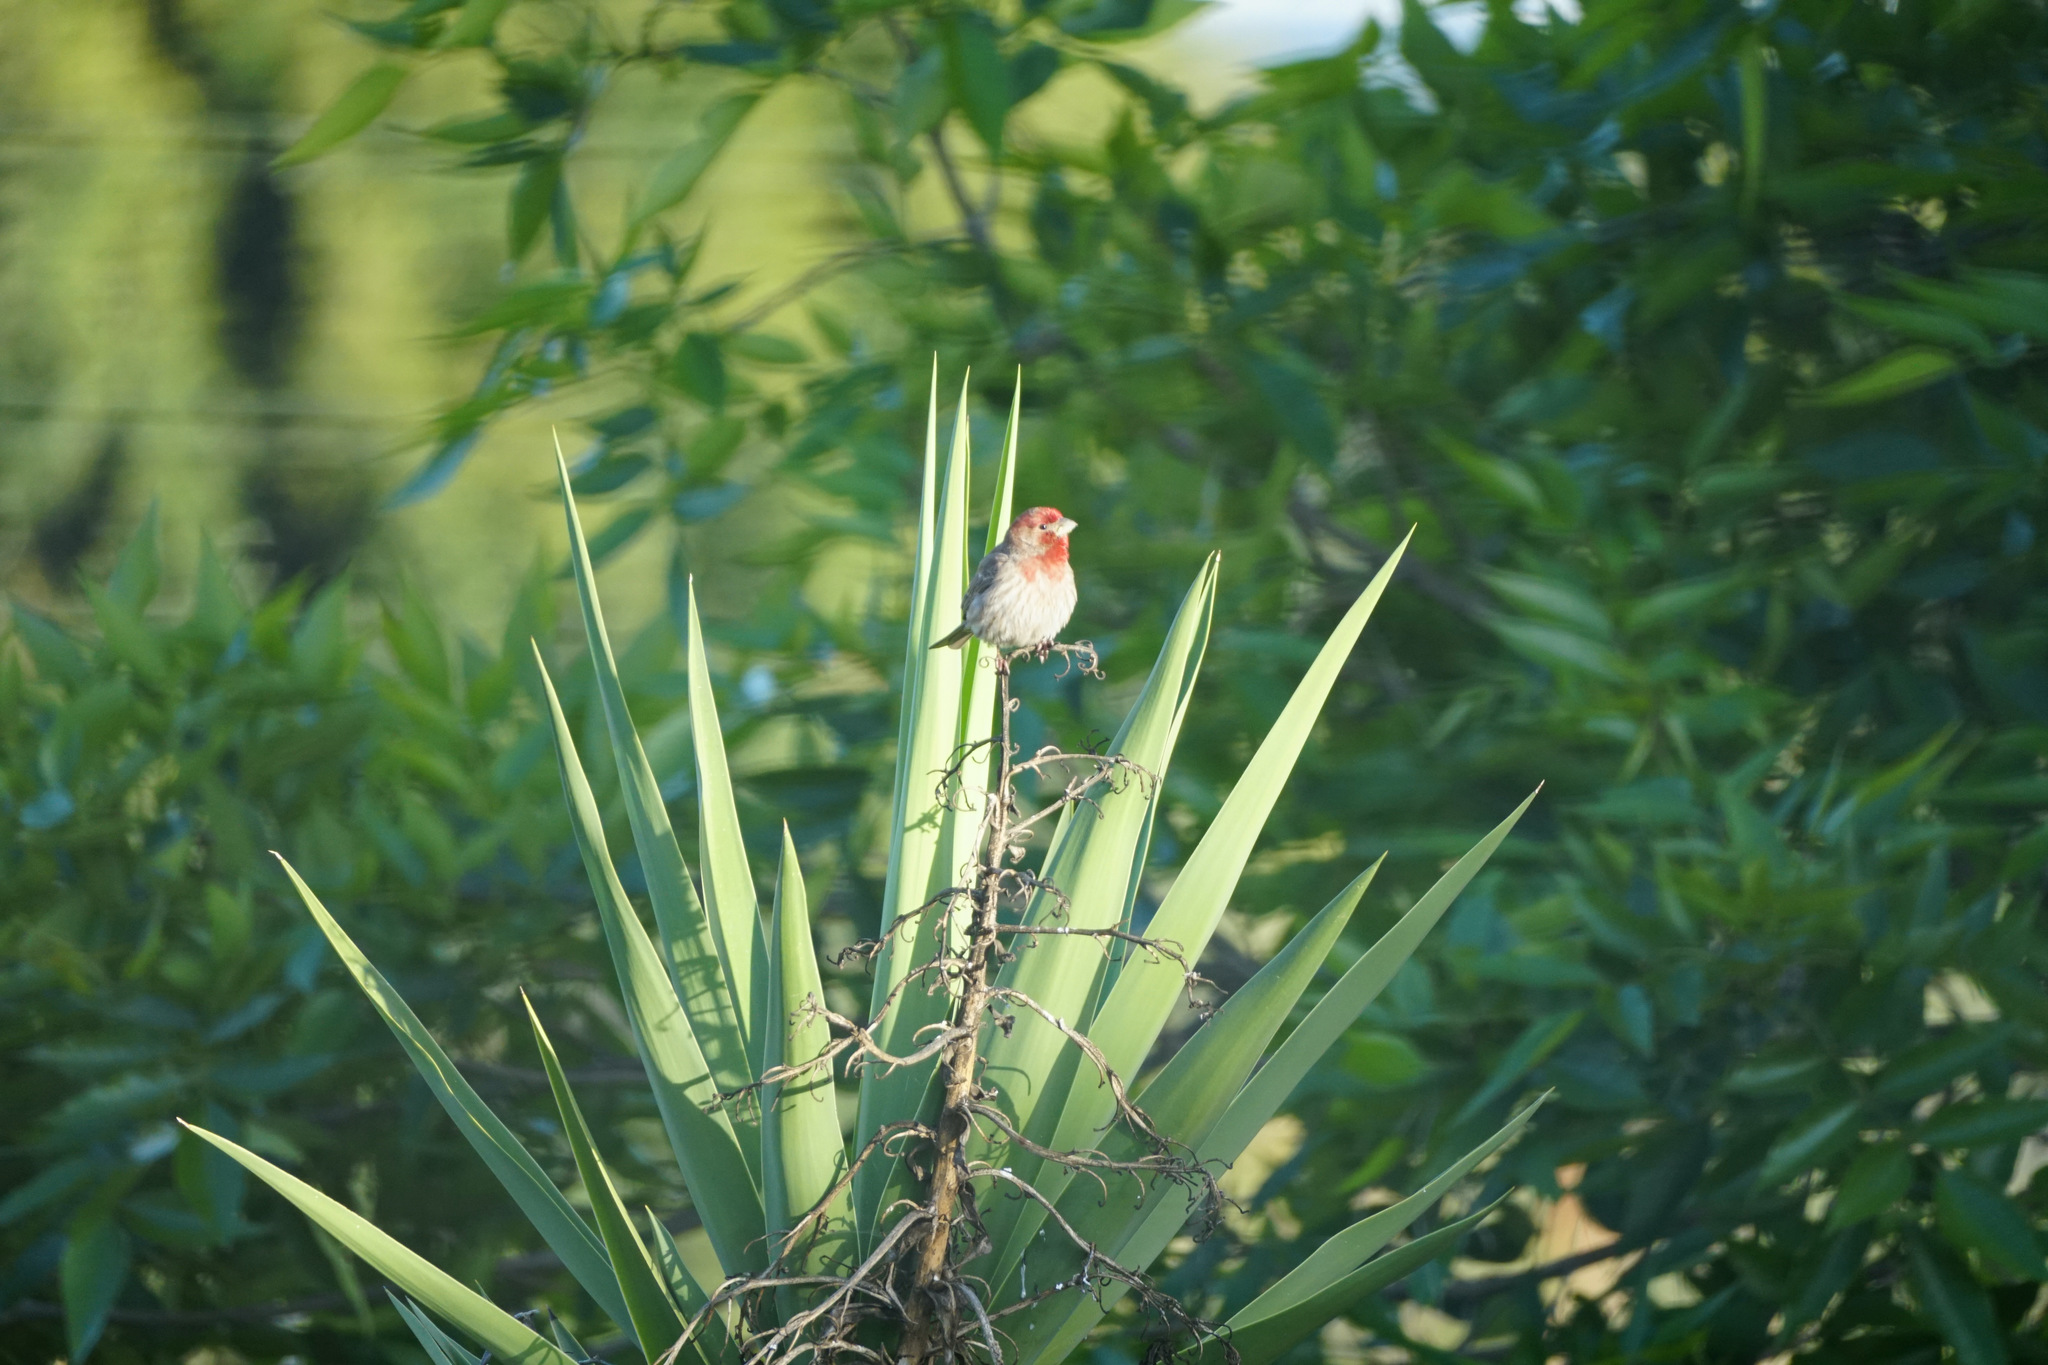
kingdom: Animalia
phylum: Chordata
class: Aves
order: Passeriformes
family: Fringillidae
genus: Haemorhous
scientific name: Haemorhous mexicanus
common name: House finch
